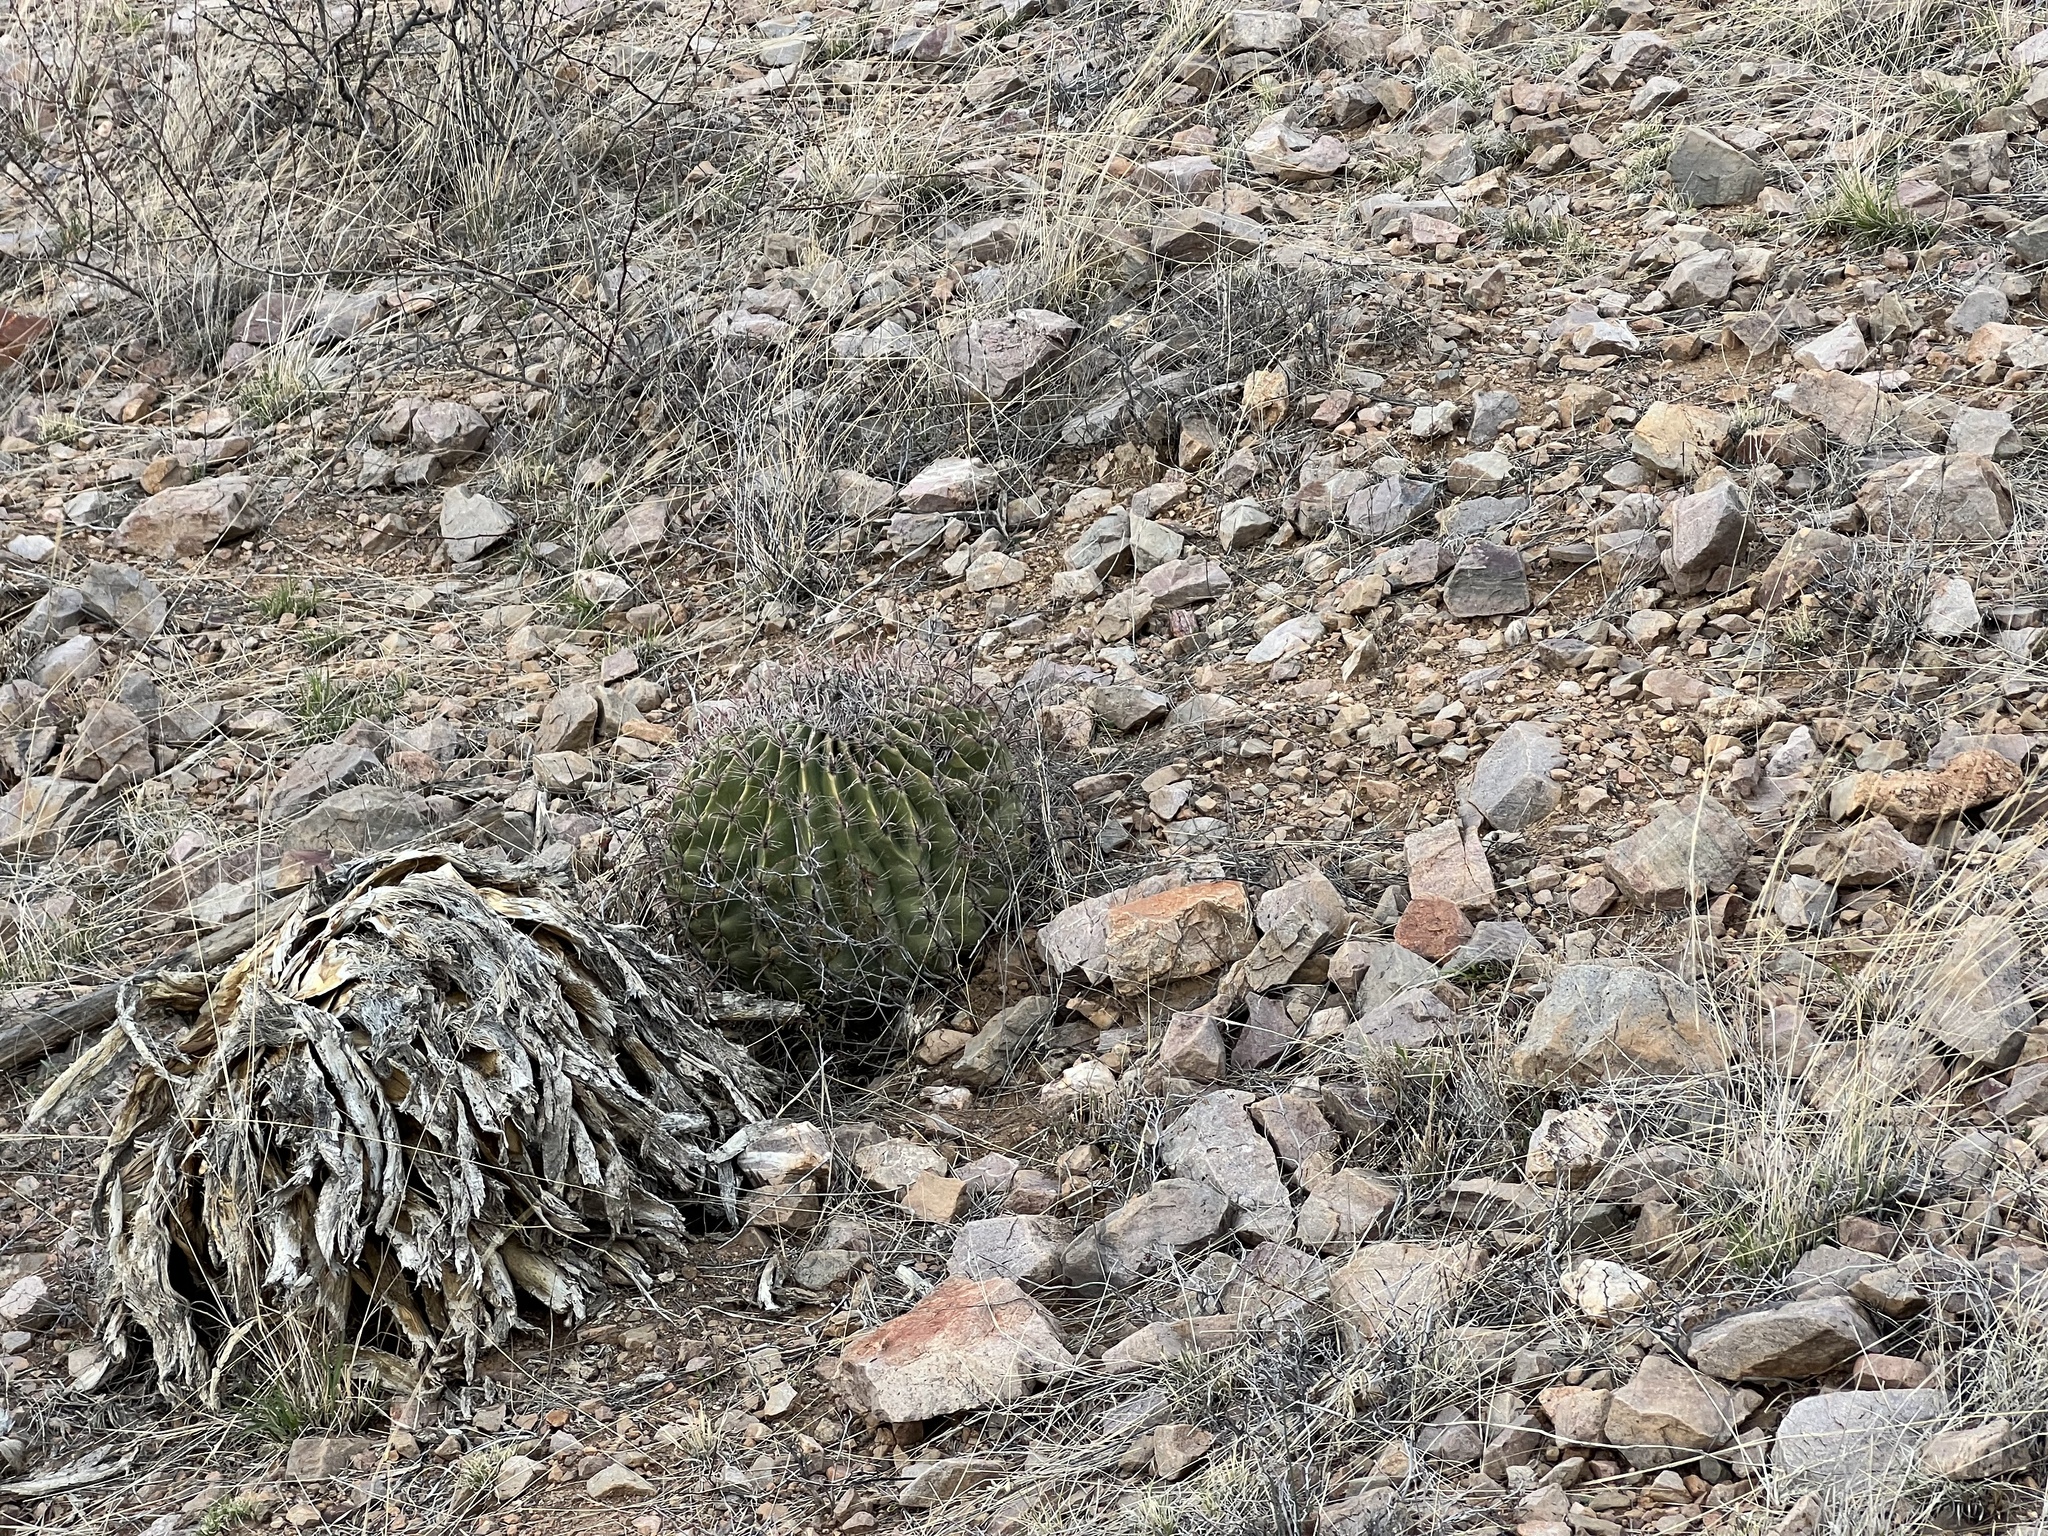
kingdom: Plantae
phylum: Tracheophyta
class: Magnoliopsida
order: Caryophyllales
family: Cactaceae
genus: Ferocactus
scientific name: Ferocactus wislizeni
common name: Candy barrel cactus
